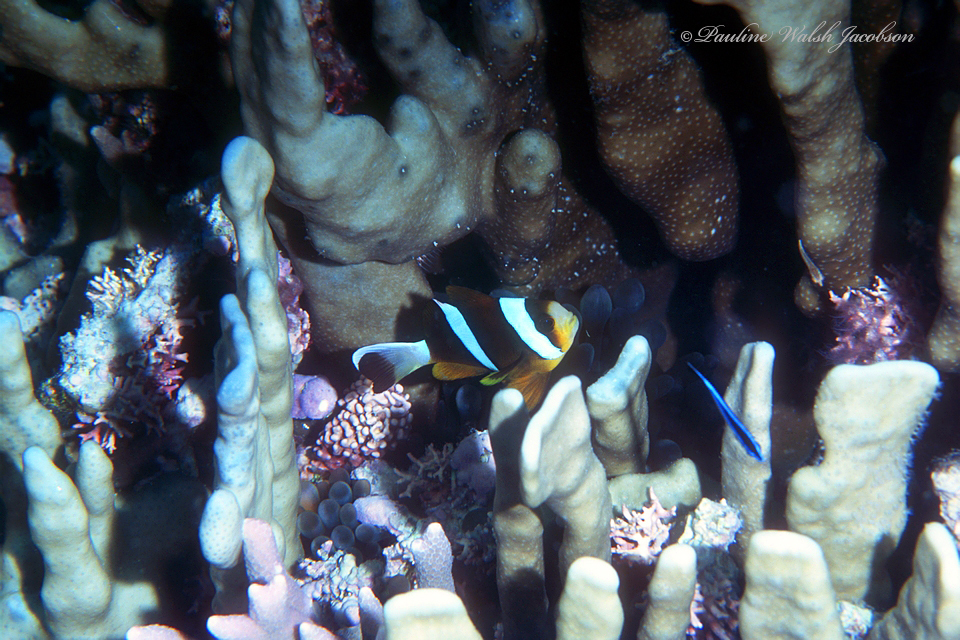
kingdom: Animalia
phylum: Chordata
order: Perciformes
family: Pomacentridae
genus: Amphiprion
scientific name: Amphiprion akindynos
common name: Barrier reef anemonefish
